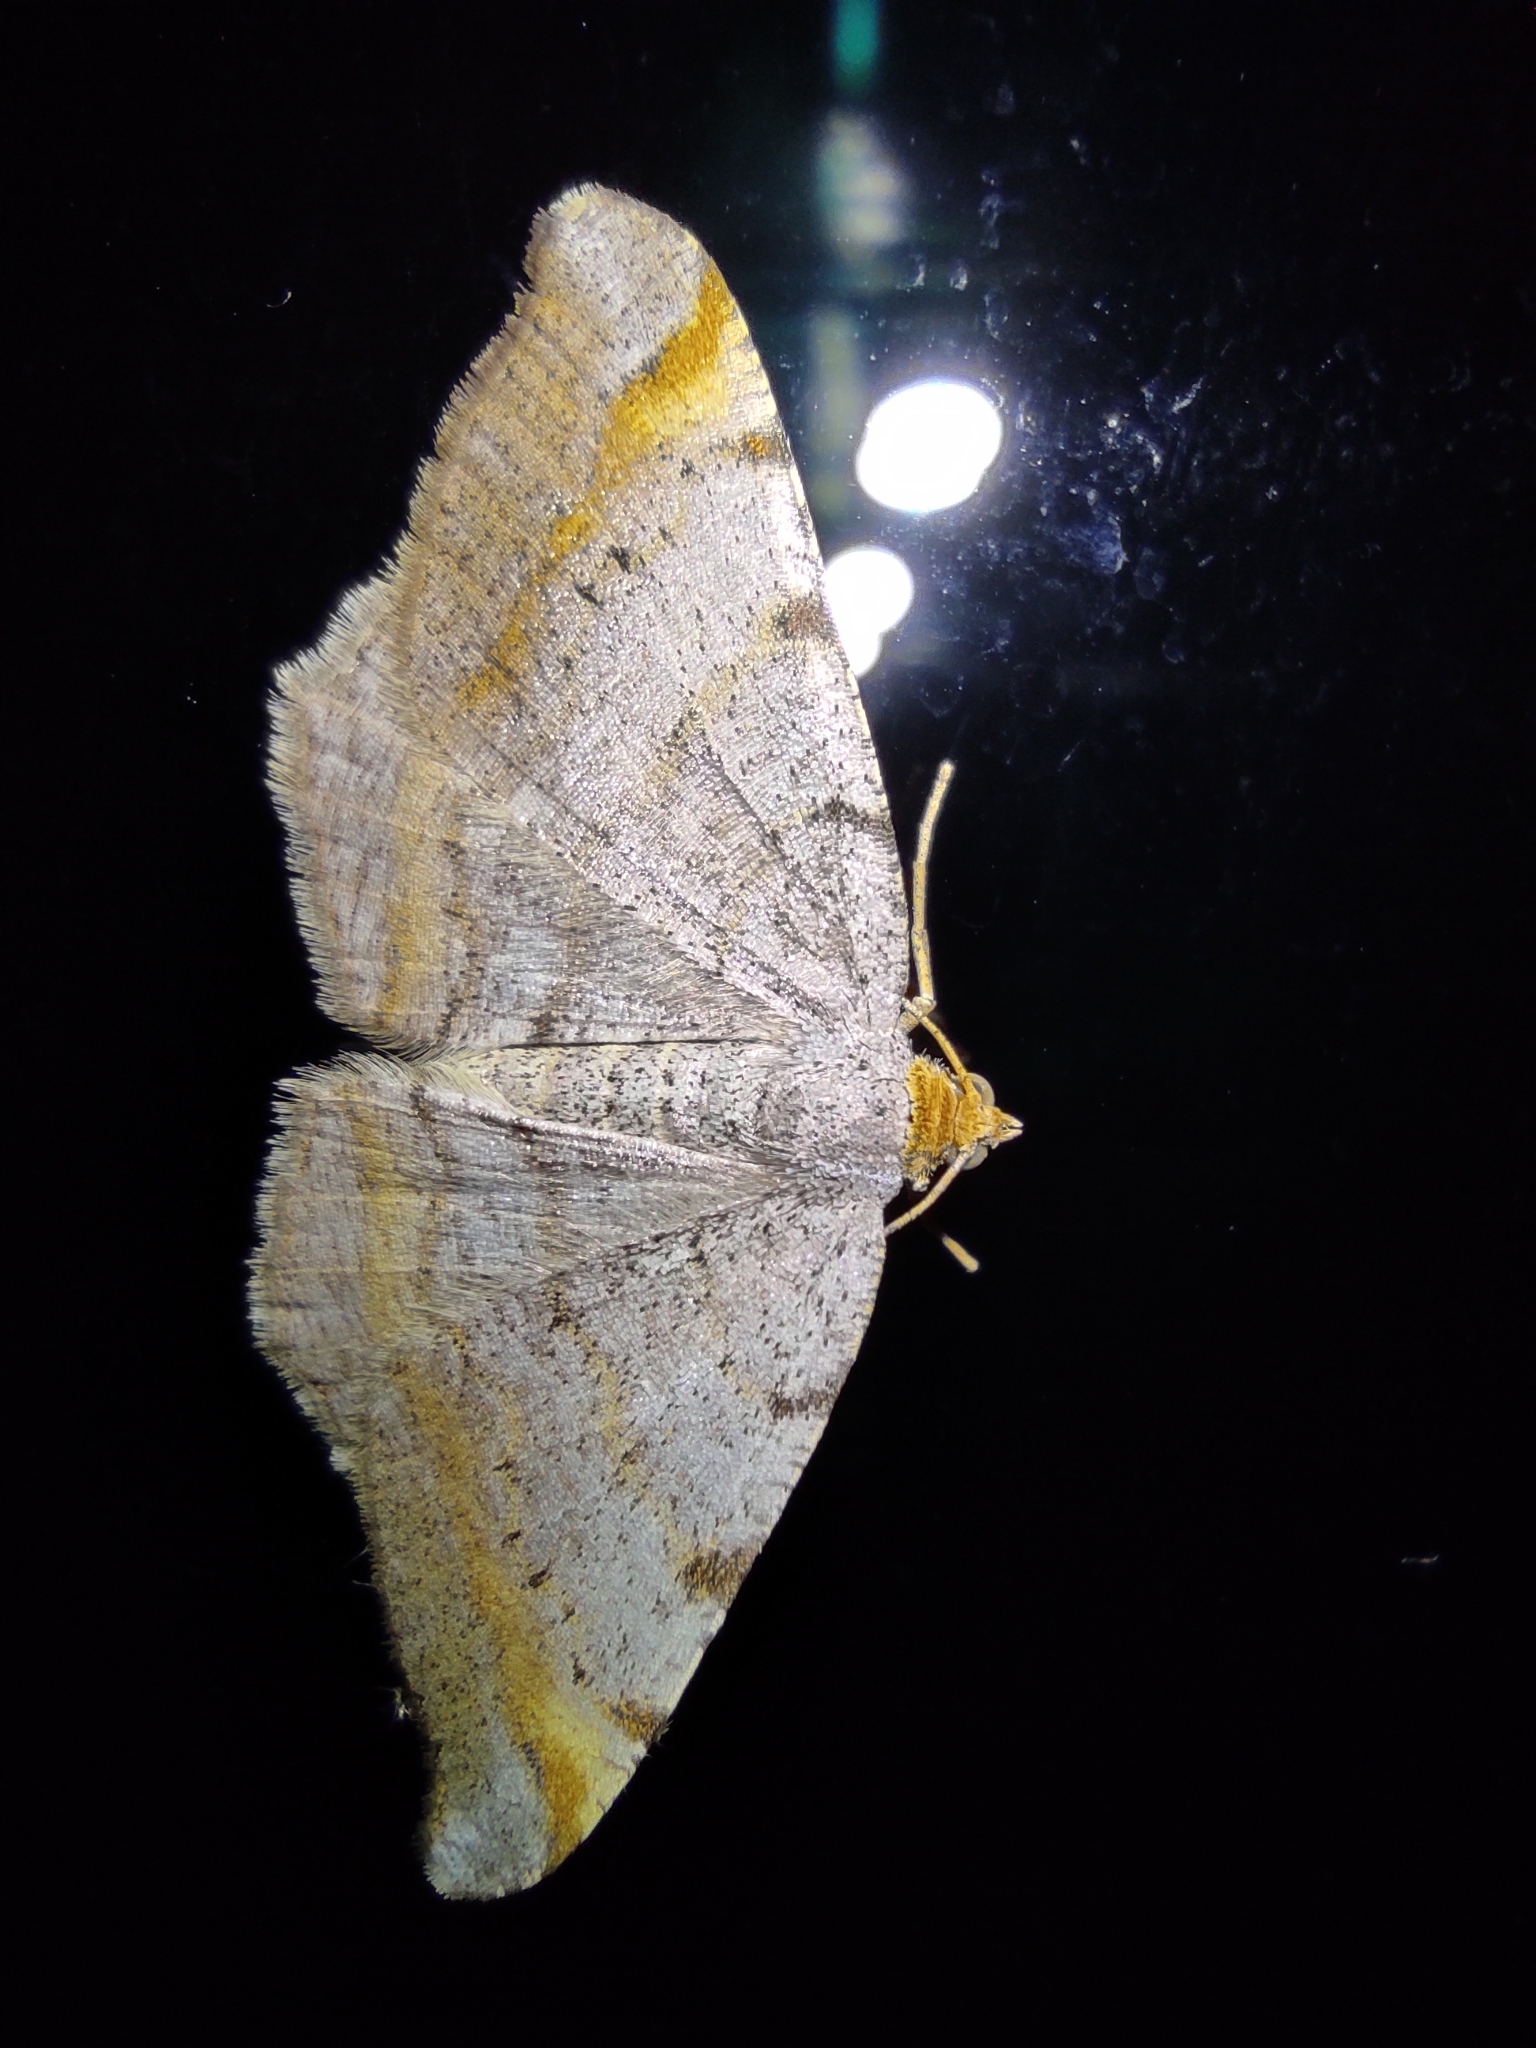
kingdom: Animalia
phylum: Arthropoda
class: Insecta
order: Lepidoptera
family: Geometridae
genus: Macaria
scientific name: Macaria liturata
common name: Tawny-barred angle
